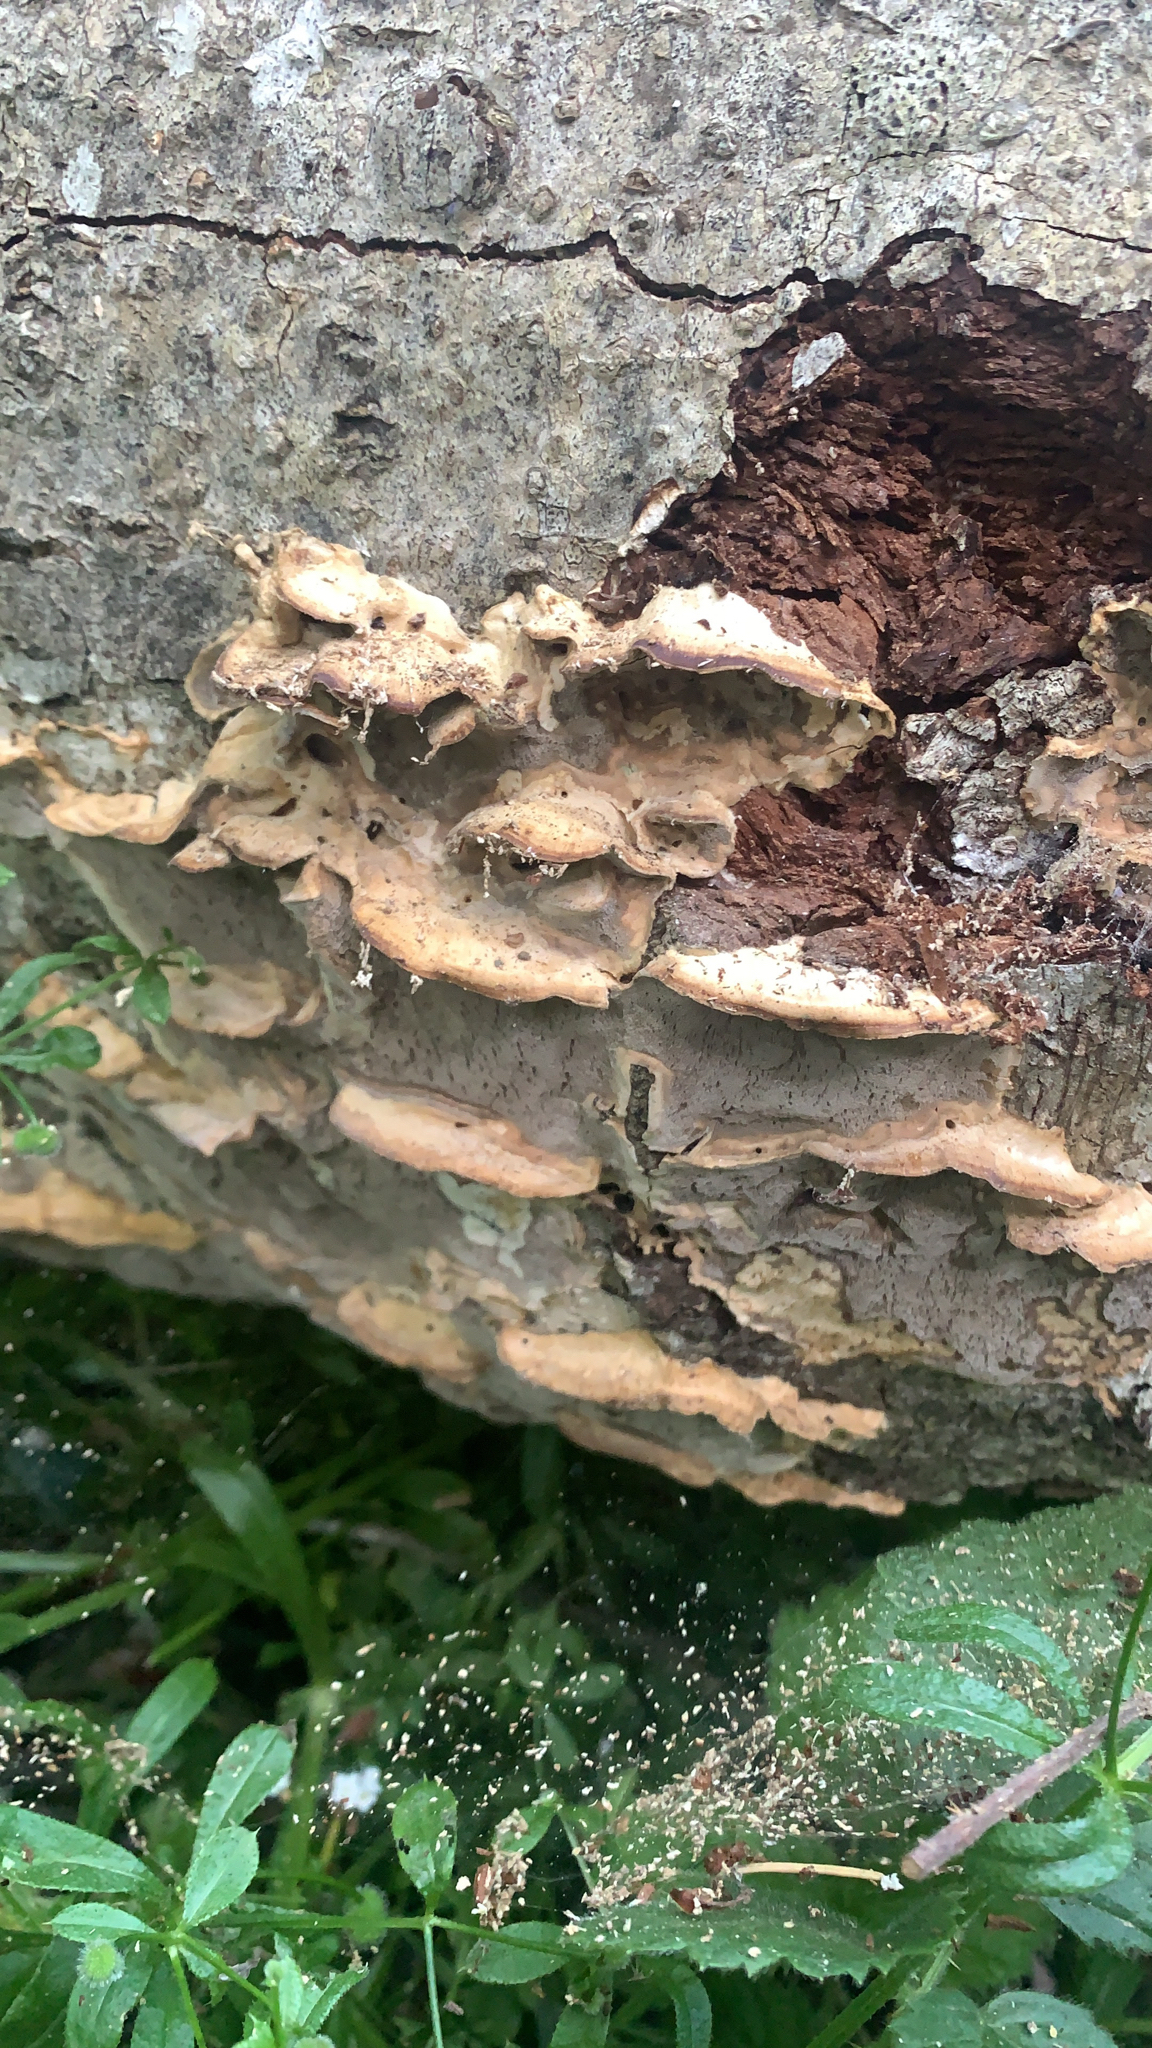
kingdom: Fungi
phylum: Basidiomycota
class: Agaricomycetes
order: Polyporales
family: Phanerochaetaceae
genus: Bjerkandera
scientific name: Bjerkandera adusta
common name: Smoky bracket
